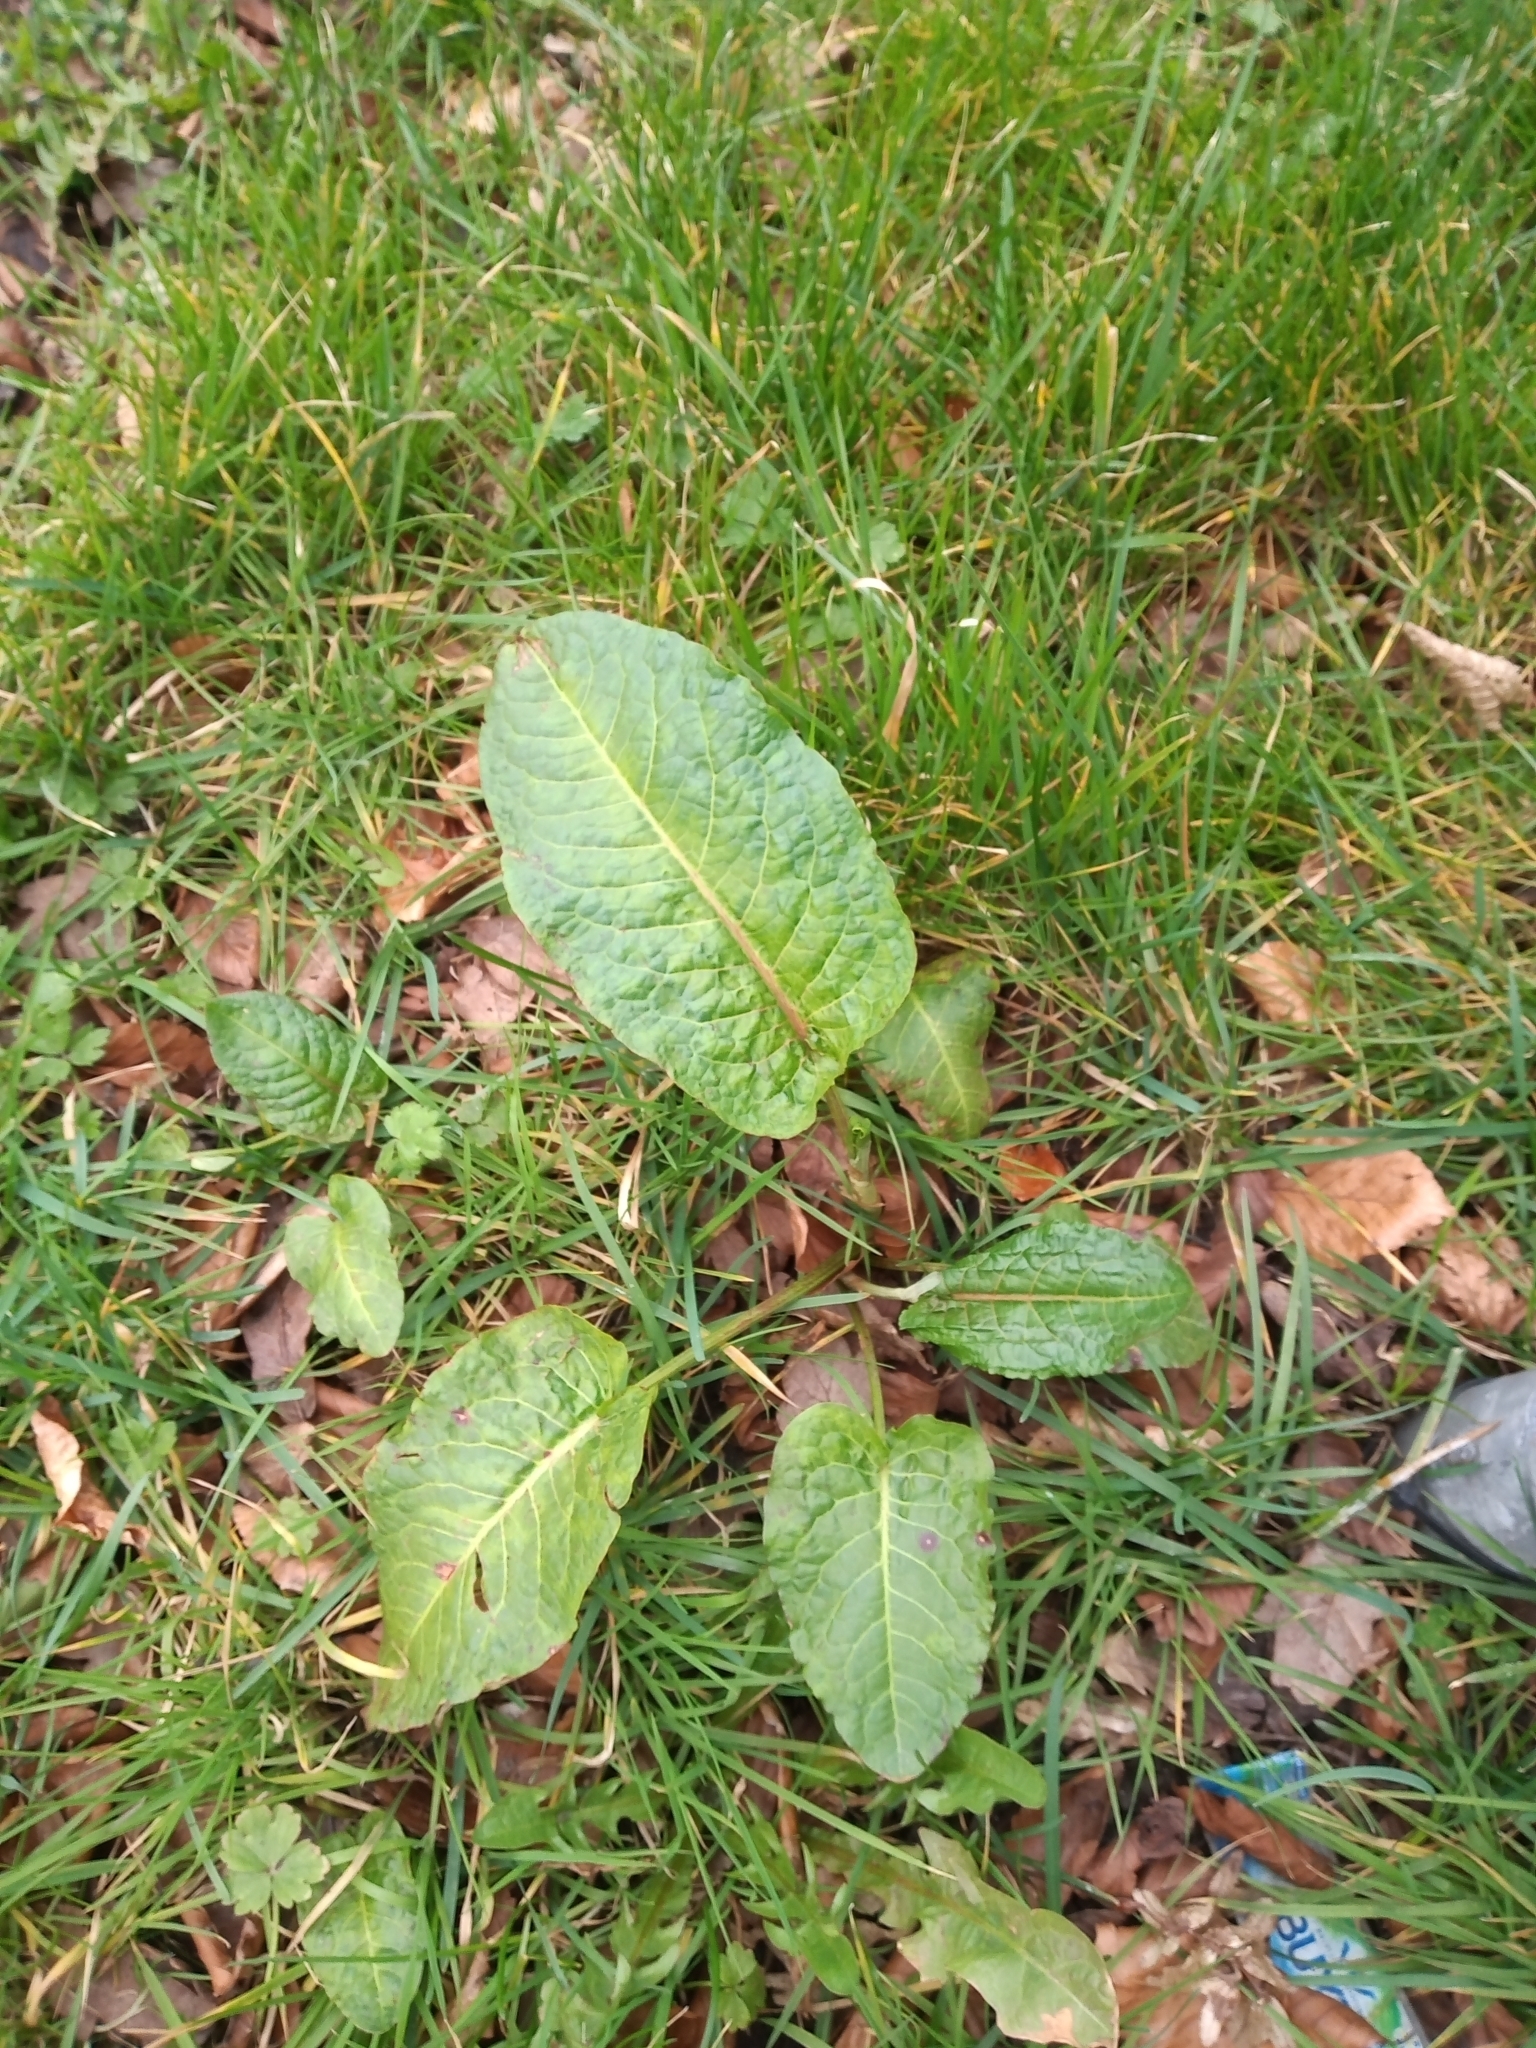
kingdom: Plantae
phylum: Tracheophyta
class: Magnoliopsida
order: Caryophyllales
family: Polygonaceae
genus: Rumex
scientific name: Rumex obtusifolius
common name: Bitter dock
